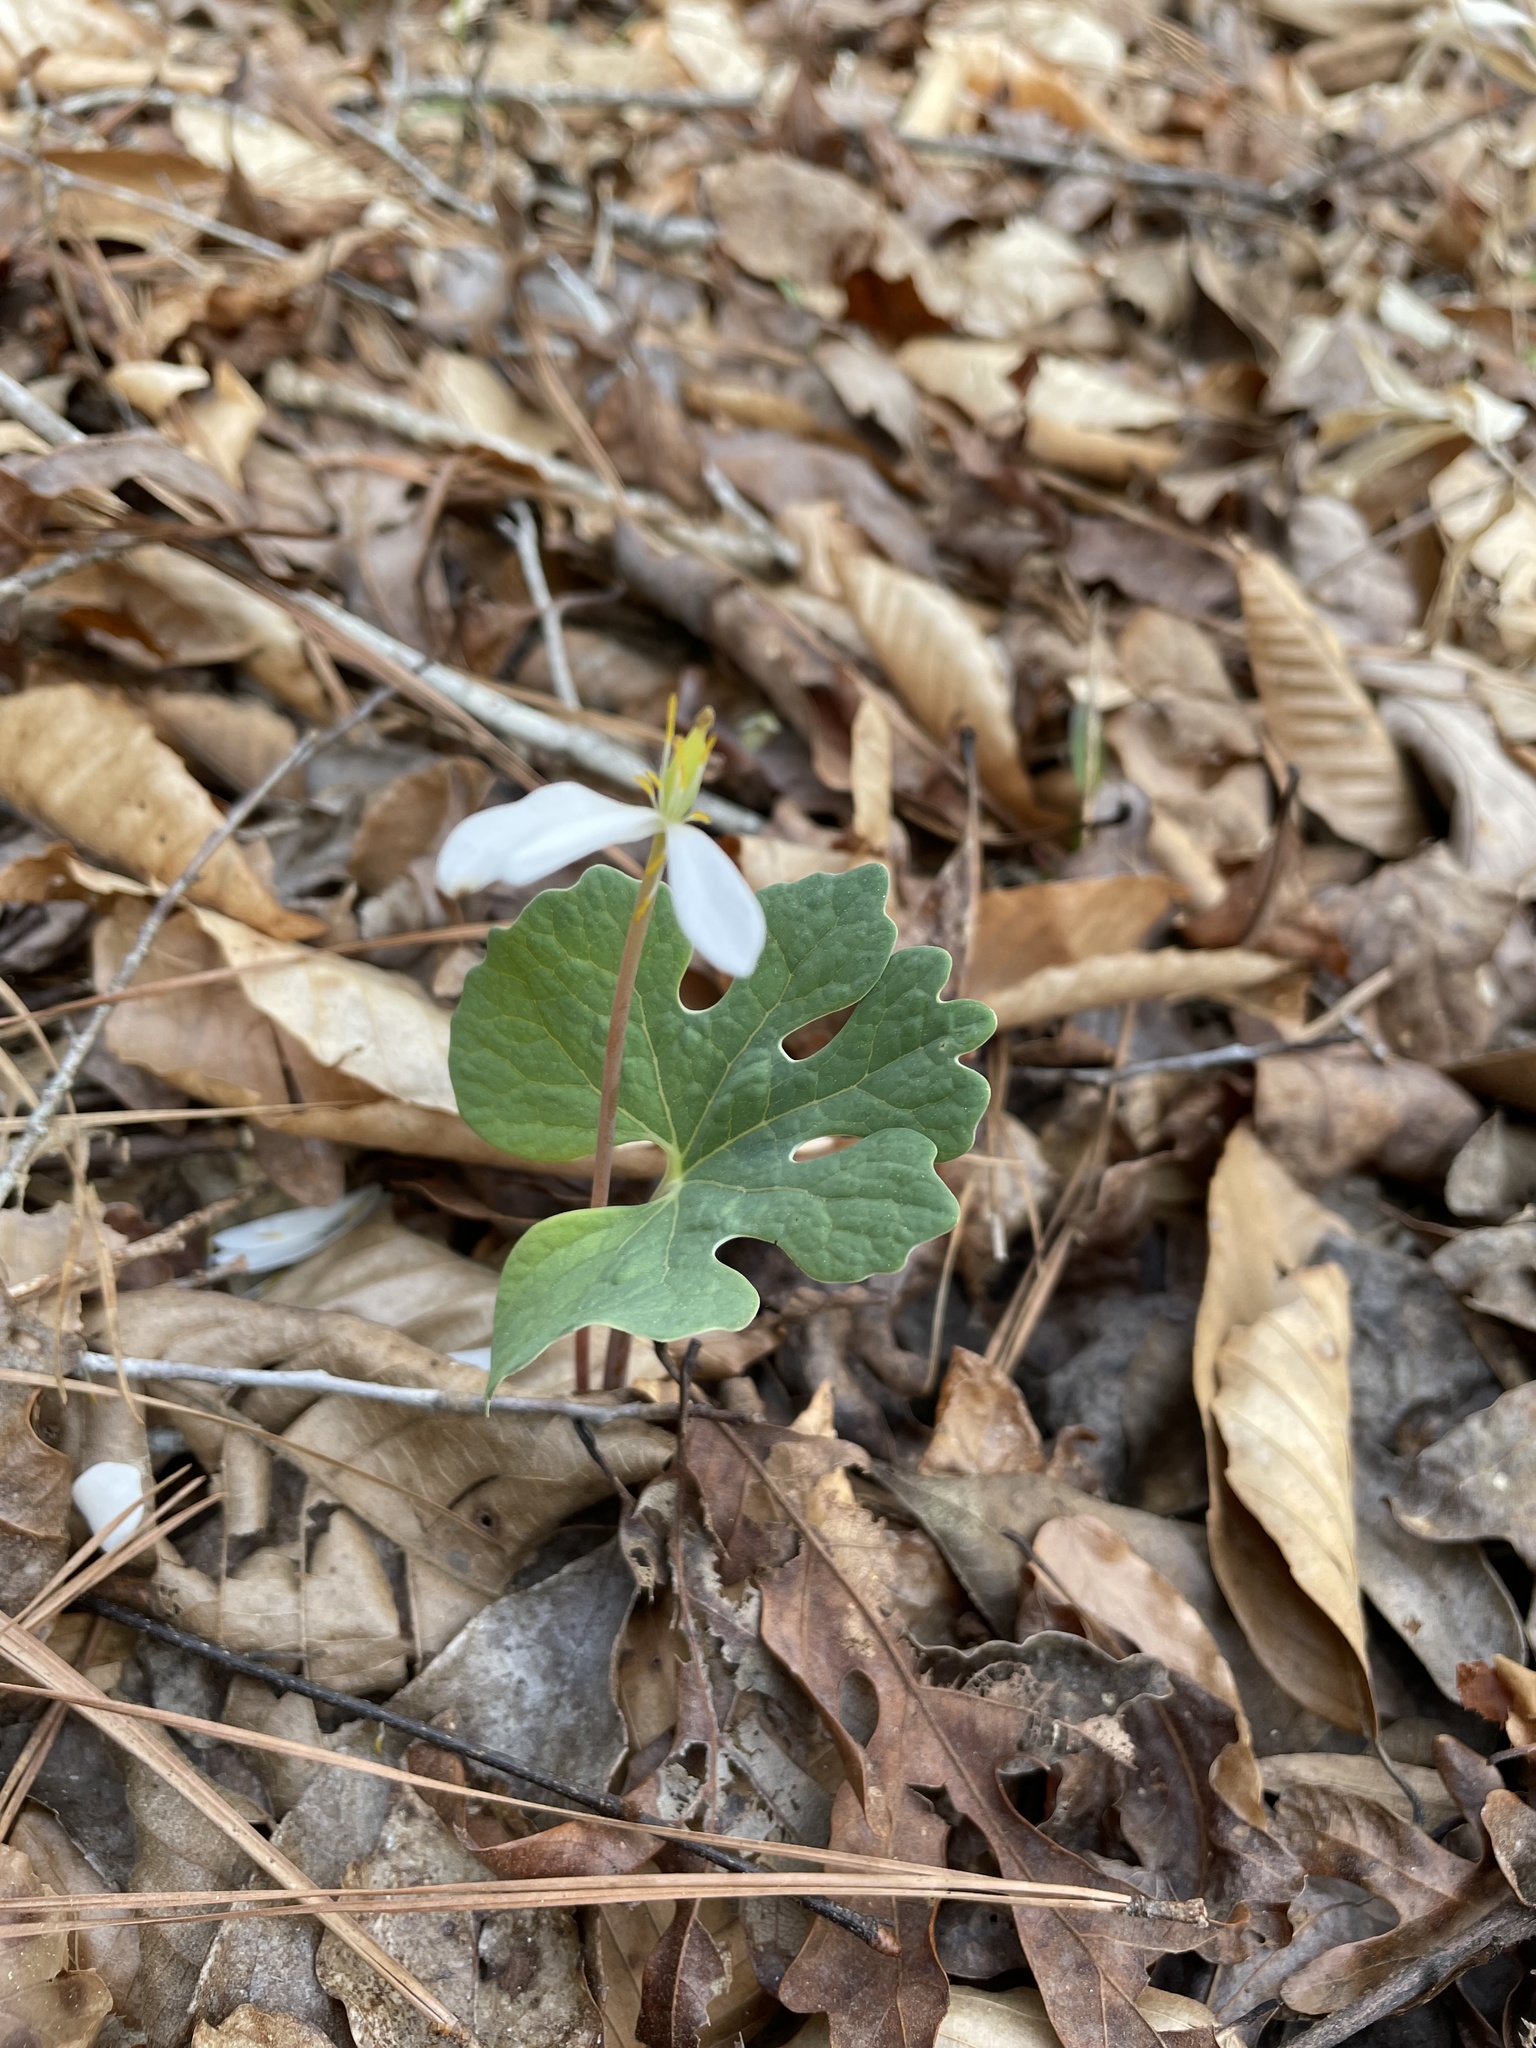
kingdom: Plantae
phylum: Tracheophyta
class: Magnoliopsida
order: Ranunculales
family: Papaveraceae
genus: Sanguinaria
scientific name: Sanguinaria canadensis
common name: Bloodroot
